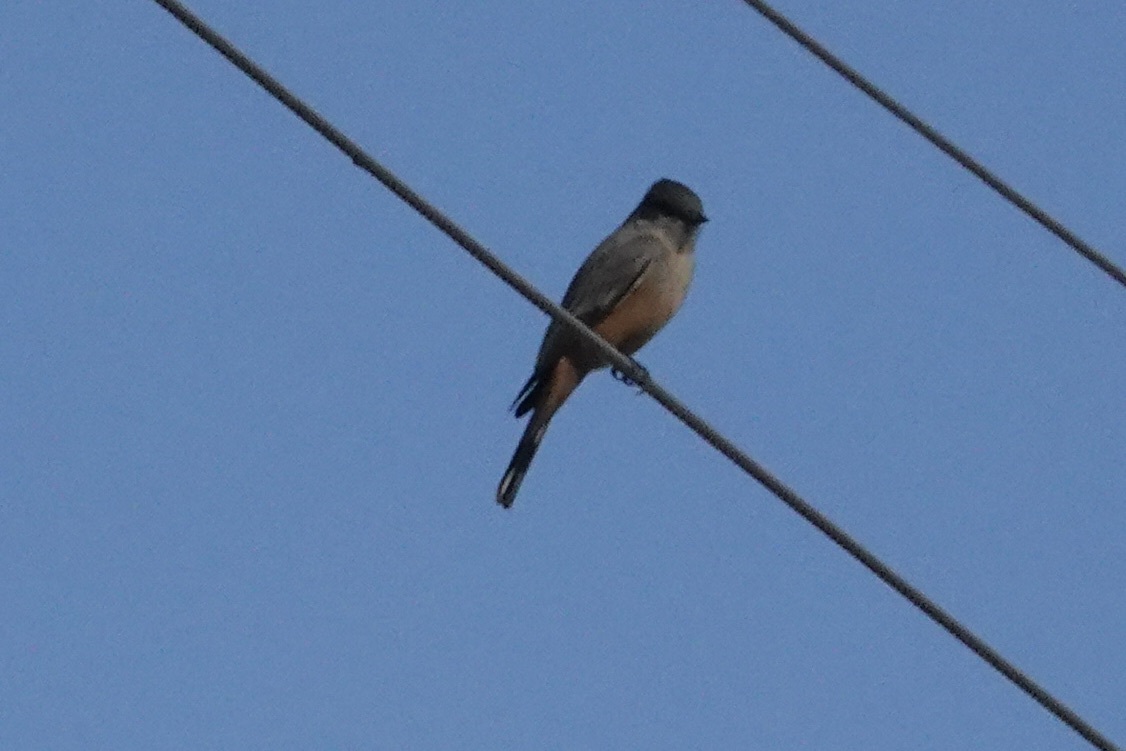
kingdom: Animalia
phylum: Chordata
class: Aves
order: Passeriformes
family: Tyrannidae
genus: Sayornis
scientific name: Sayornis saya
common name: Say's phoebe
